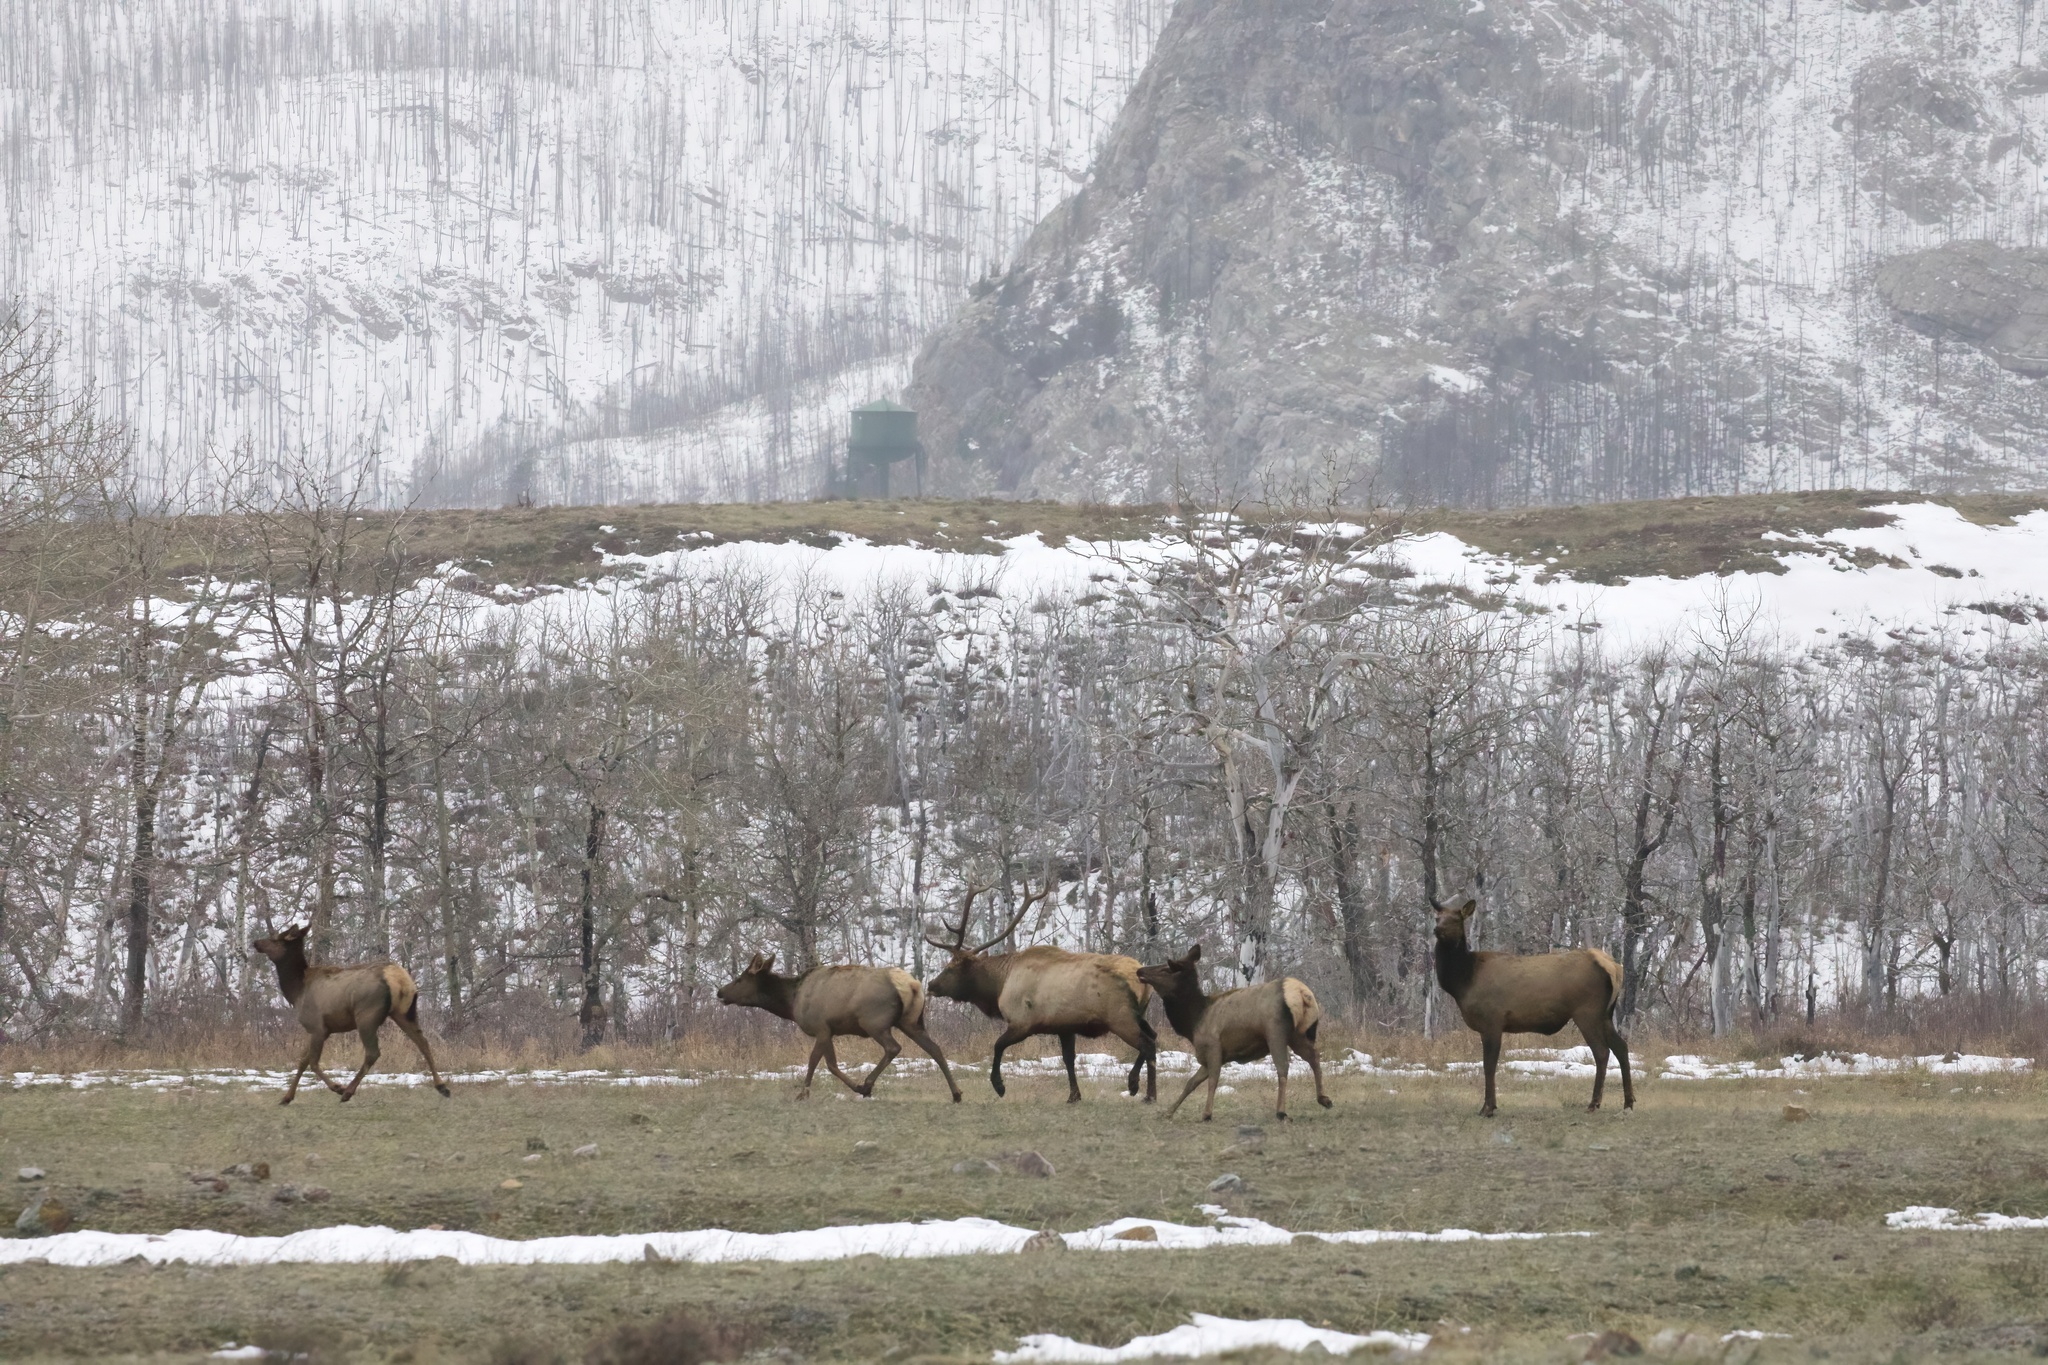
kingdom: Animalia
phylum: Chordata
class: Mammalia
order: Artiodactyla
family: Cervidae
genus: Cervus
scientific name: Cervus elaphus
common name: Red deer
